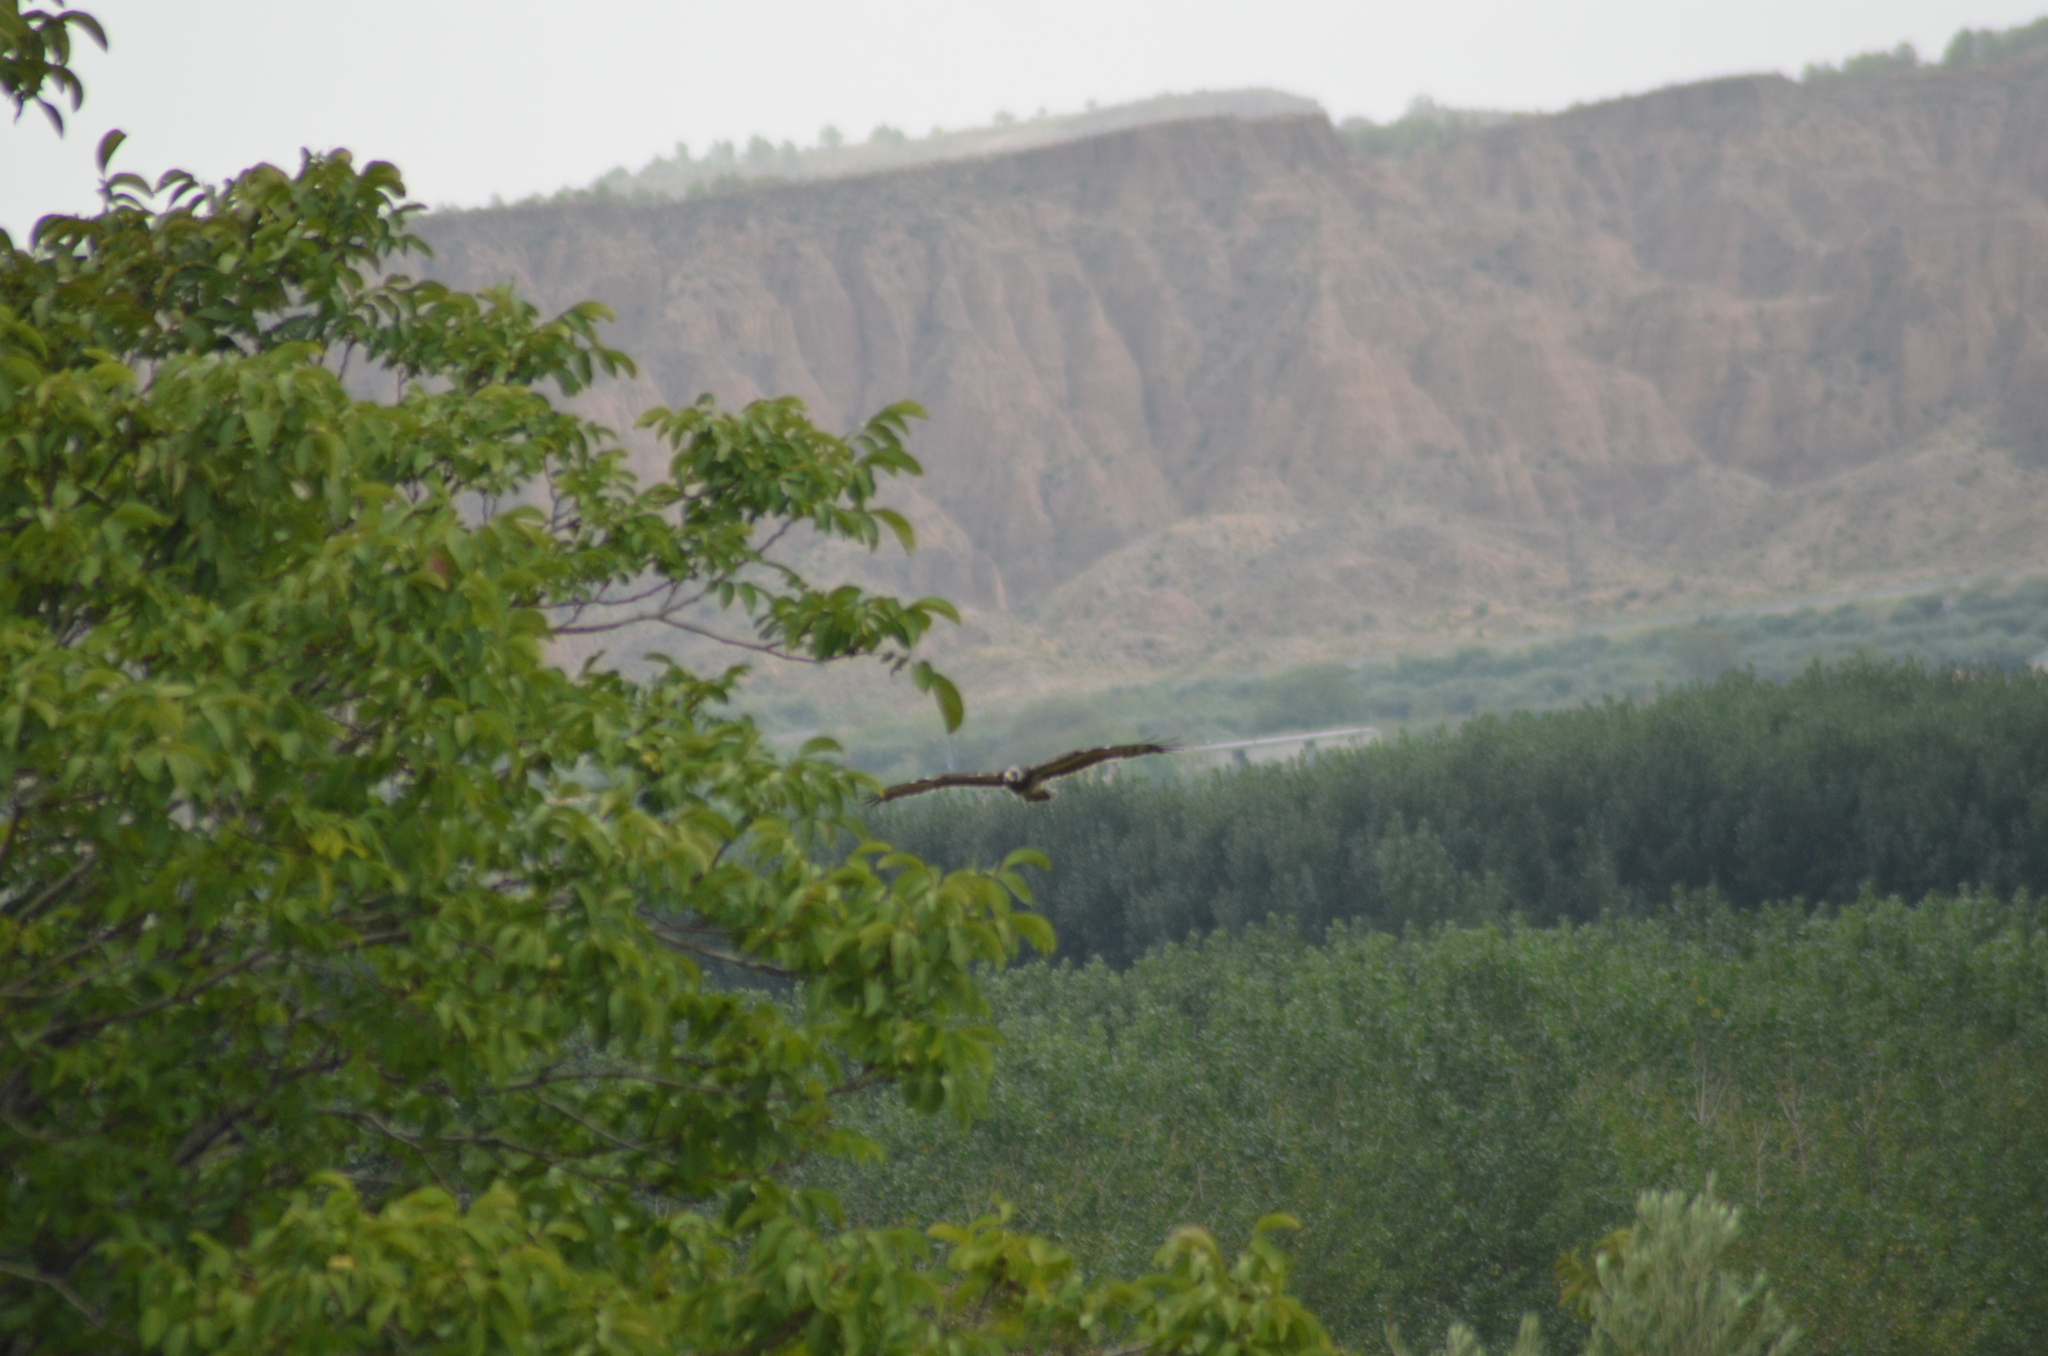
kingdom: Animalia
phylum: Chordata
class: Aves
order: Accipitriformes
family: Accipitridae
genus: Pernis
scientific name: Pernis apivorus
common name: European honey buzzard
